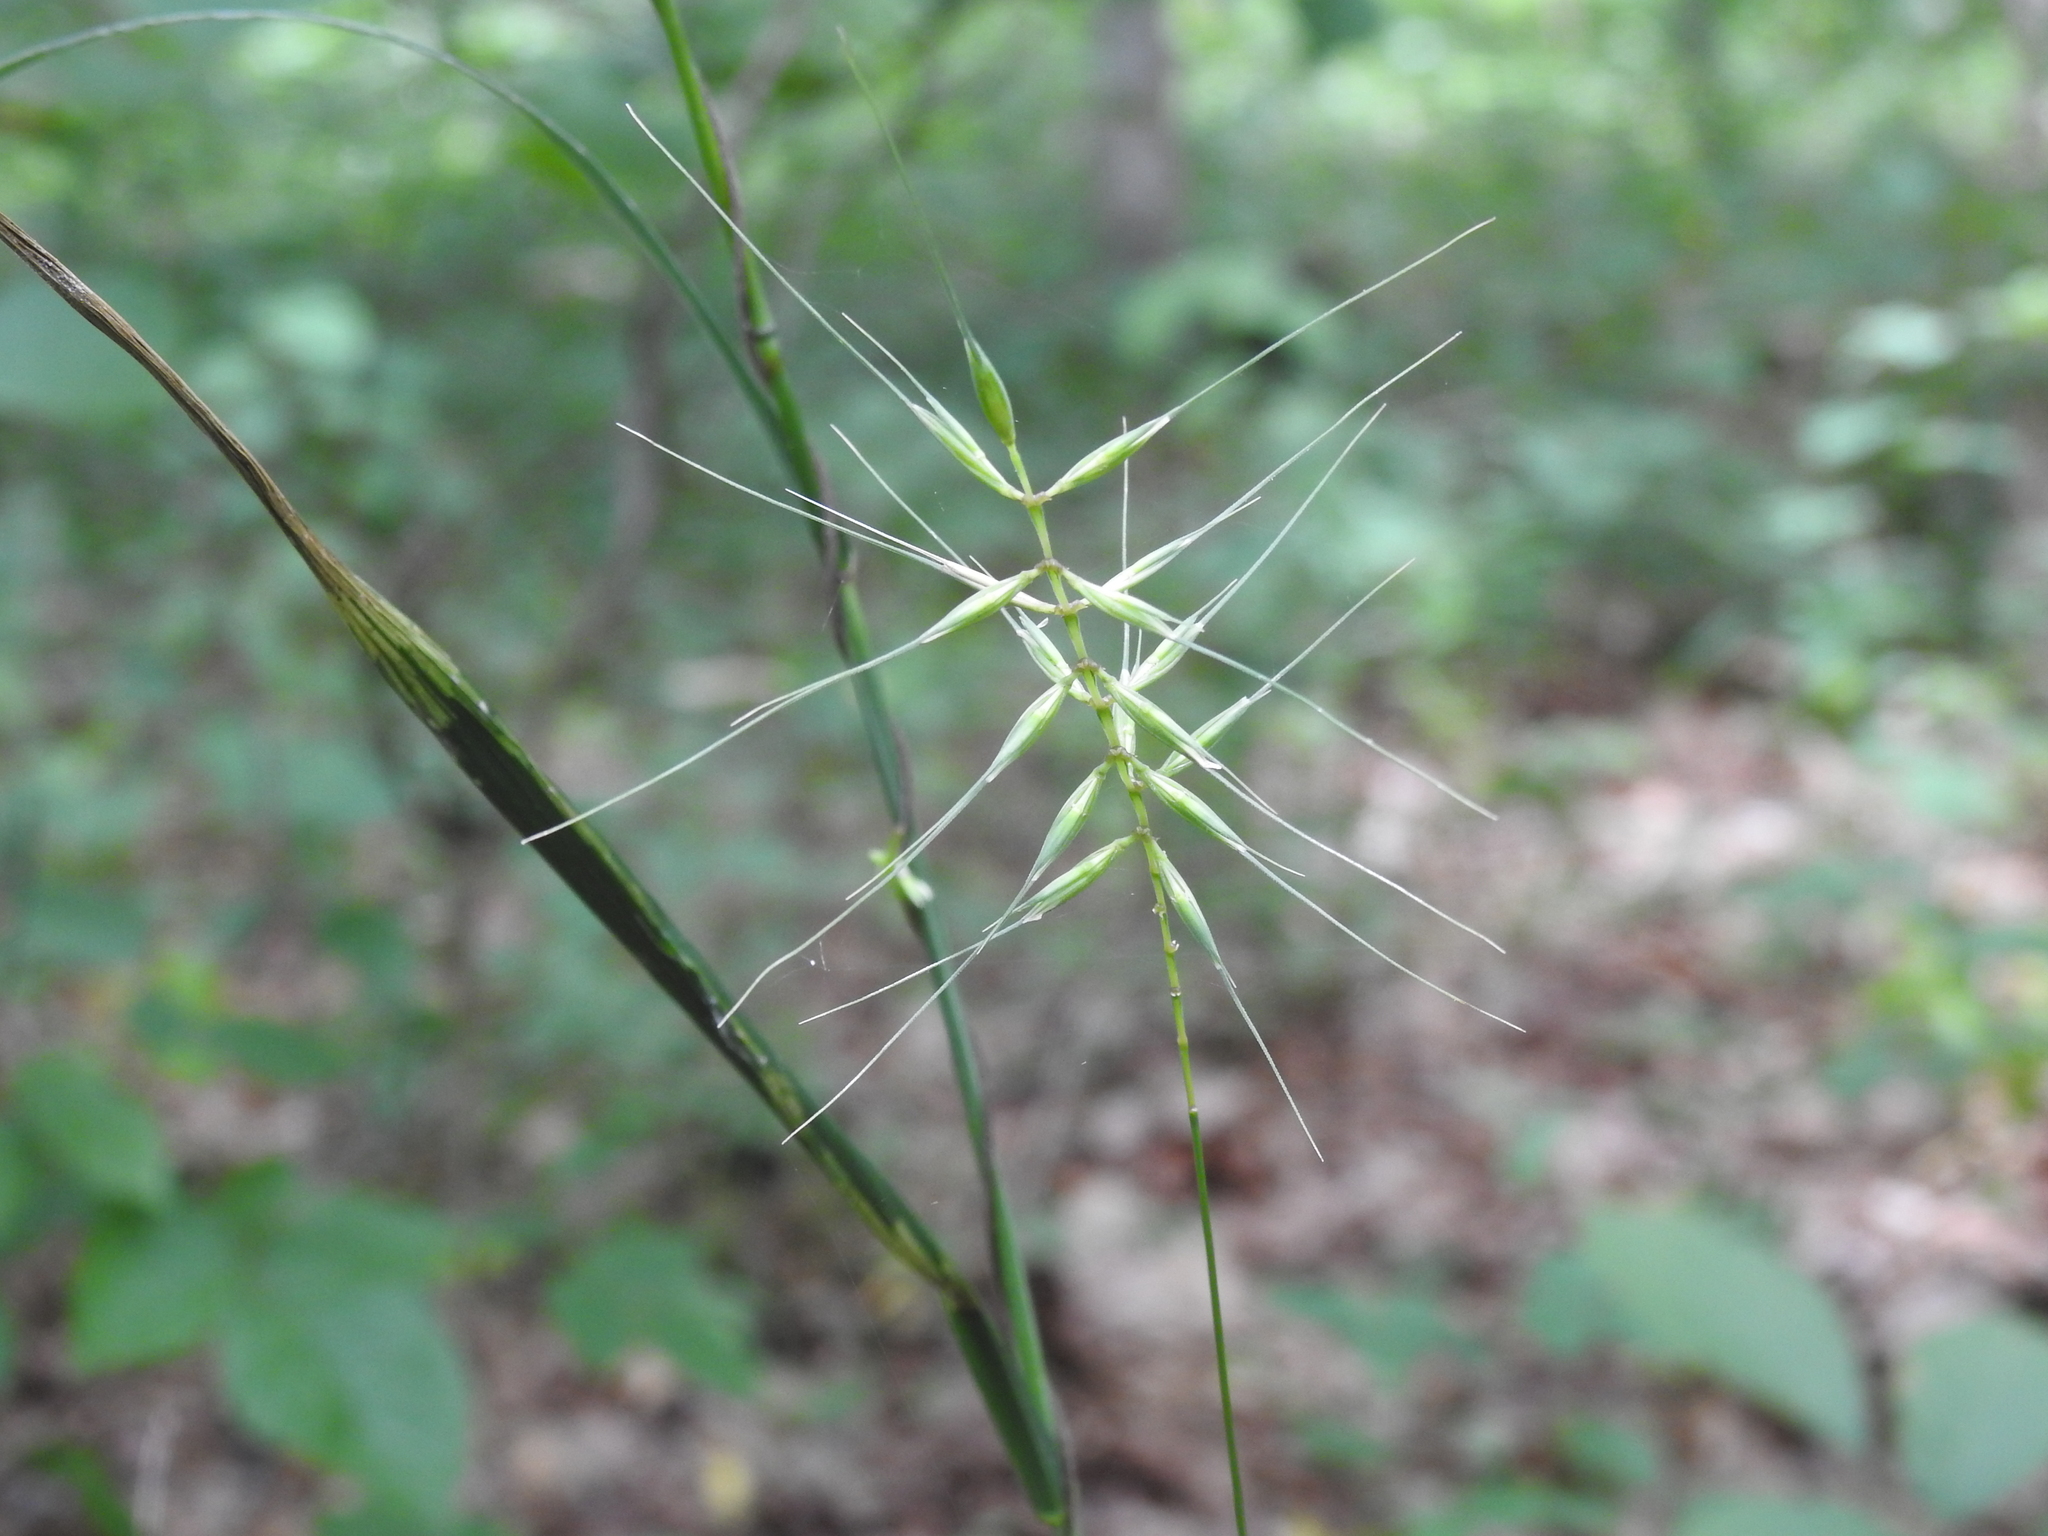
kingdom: Plantae
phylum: Tracheophyta
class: Liliopsida
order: Poales
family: Poaceae
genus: Elymus
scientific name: Elymus hystrix
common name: Bottlebrush grass
